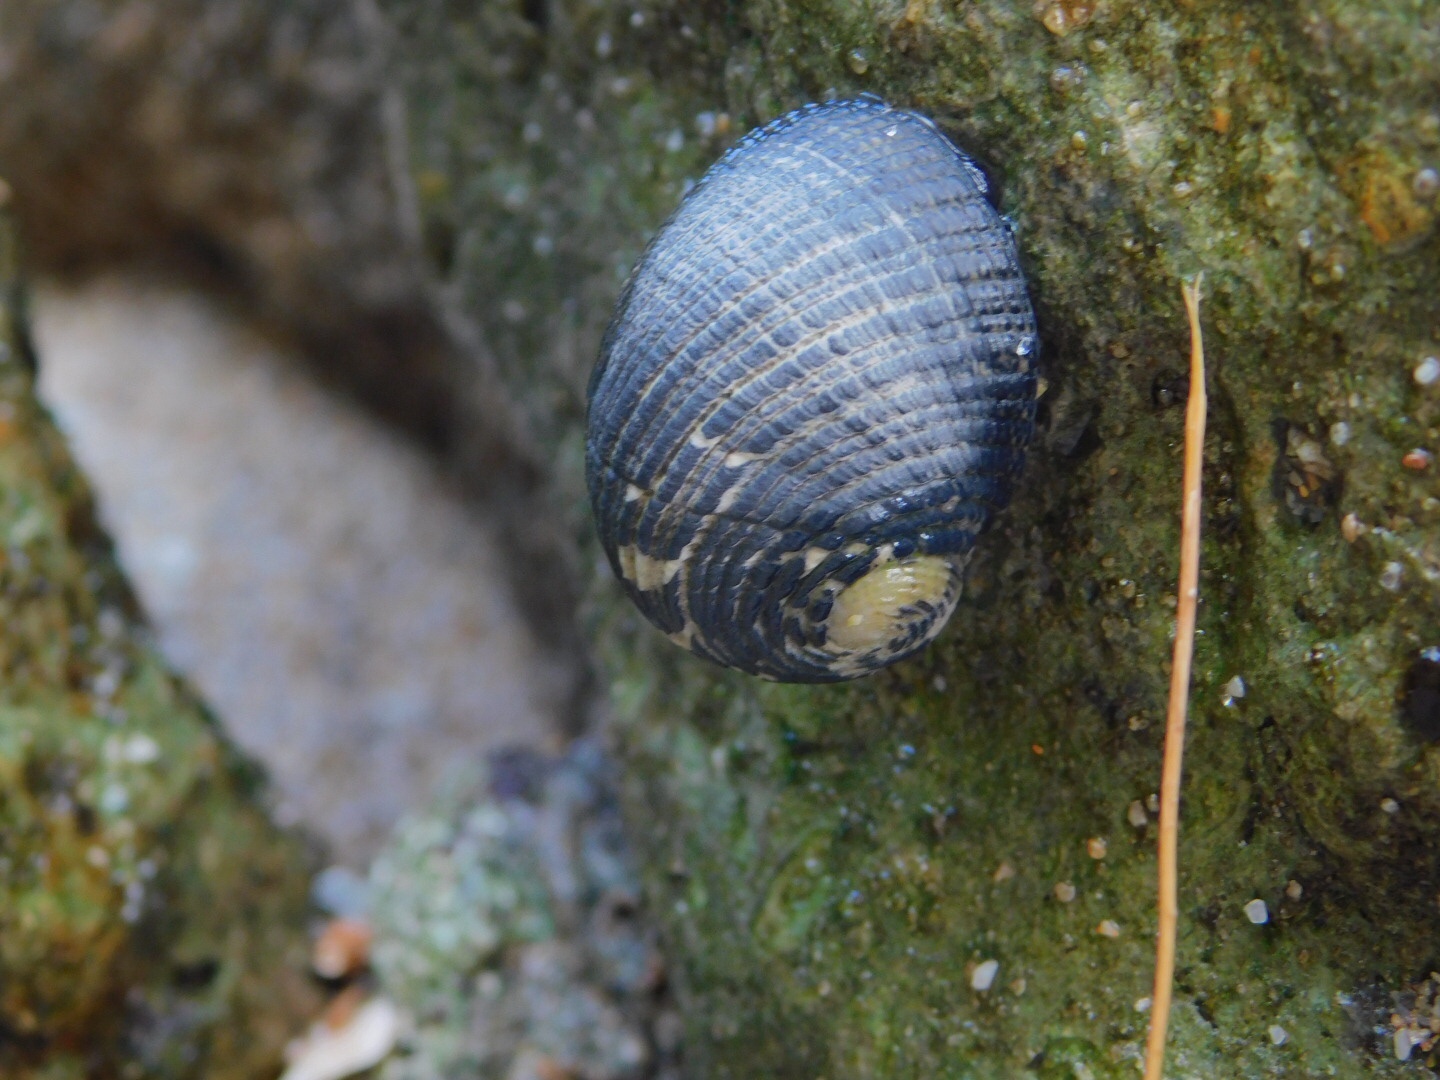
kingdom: Animalia
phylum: Mollusca
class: Gastropoda
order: Cycloneritida
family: Neritidae
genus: Nerita
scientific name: Nerita fulgurans
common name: Antillean nerite
